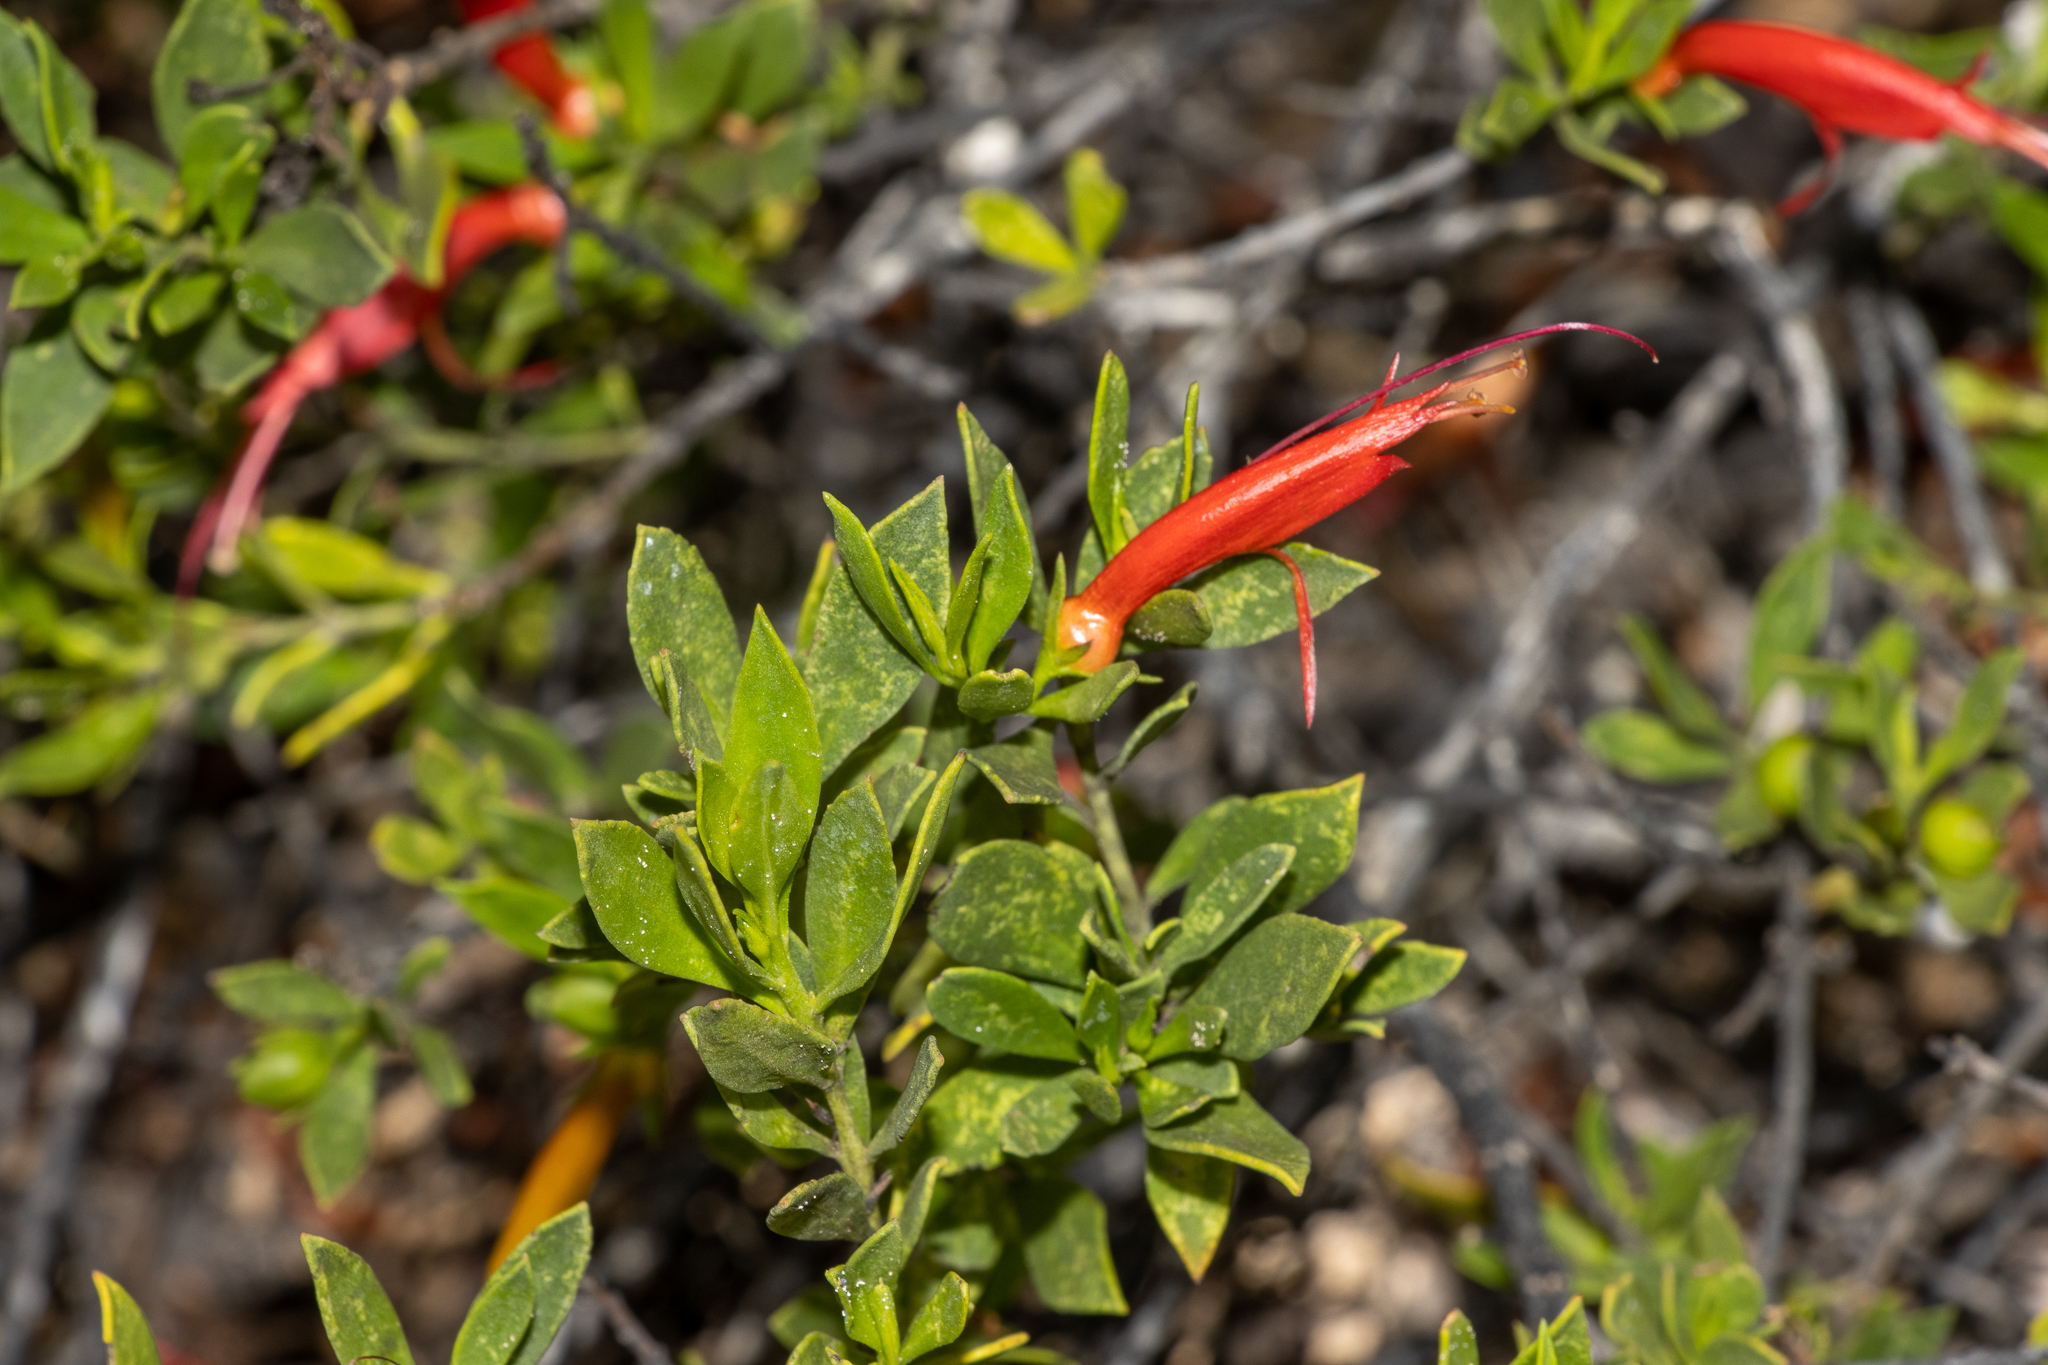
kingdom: Plantae
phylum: Tracheophyta
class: Magnoliopsida
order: Lamiales
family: Scrophulariaceae
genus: Eremophila
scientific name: Eremophila glabra
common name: Black-fuchsia
